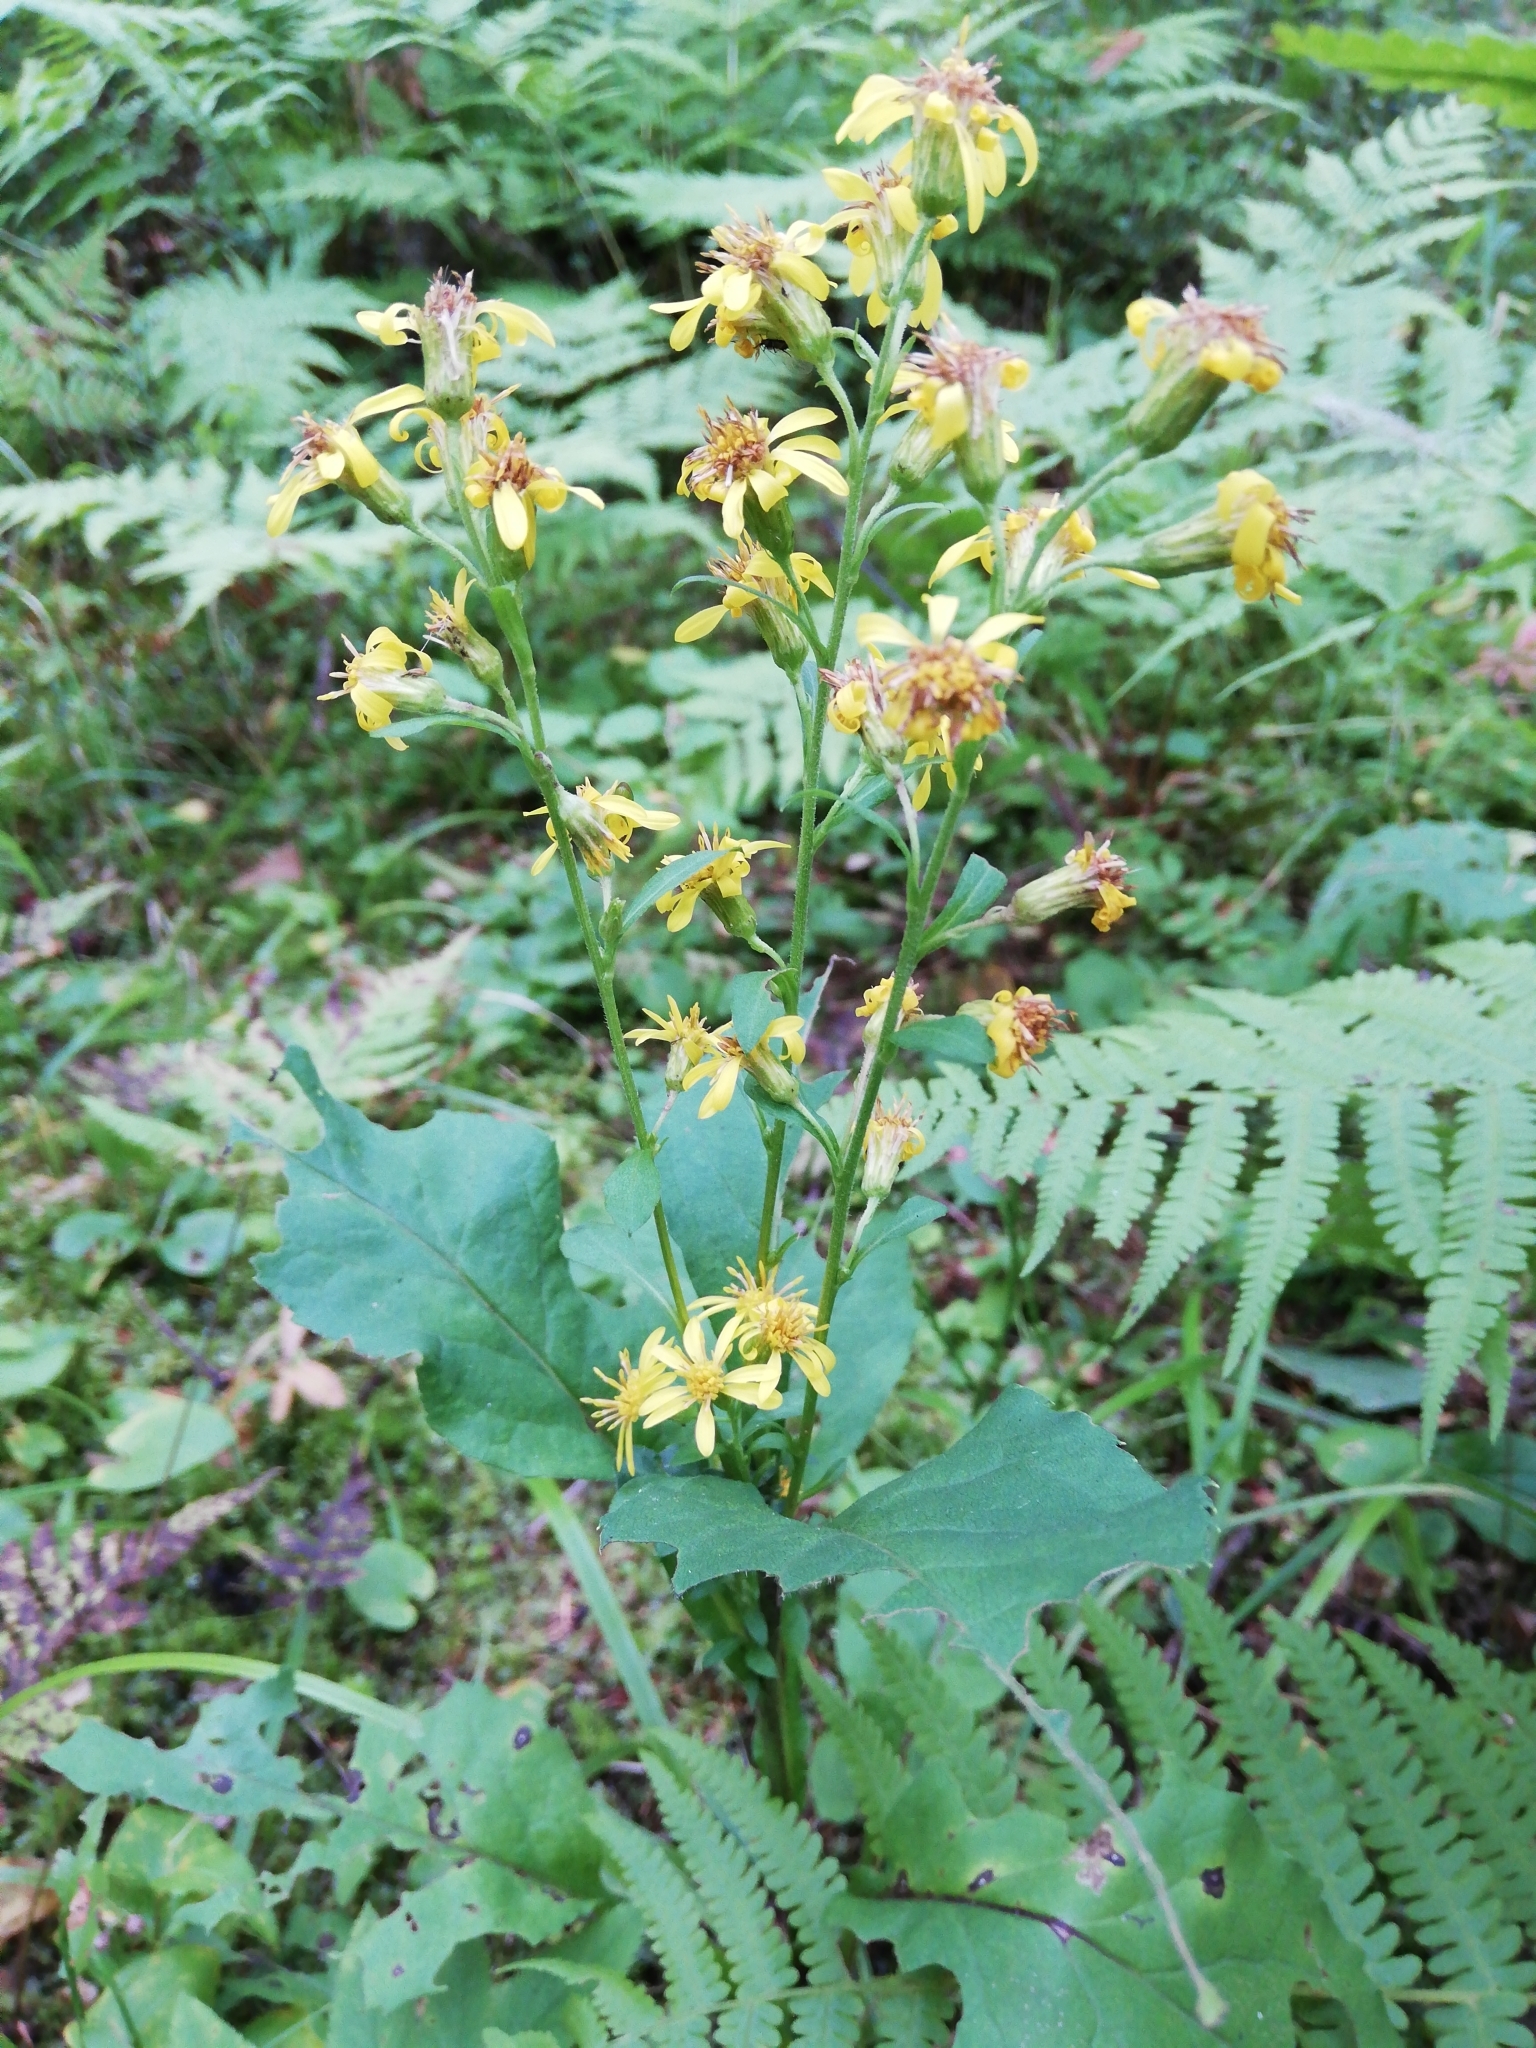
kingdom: Plantae
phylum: Tracheophyta
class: Magnoliopsida
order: Asterales
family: Asteraceae
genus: Senecio
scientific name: Senecio nemorensis
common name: Alpine ragwort
